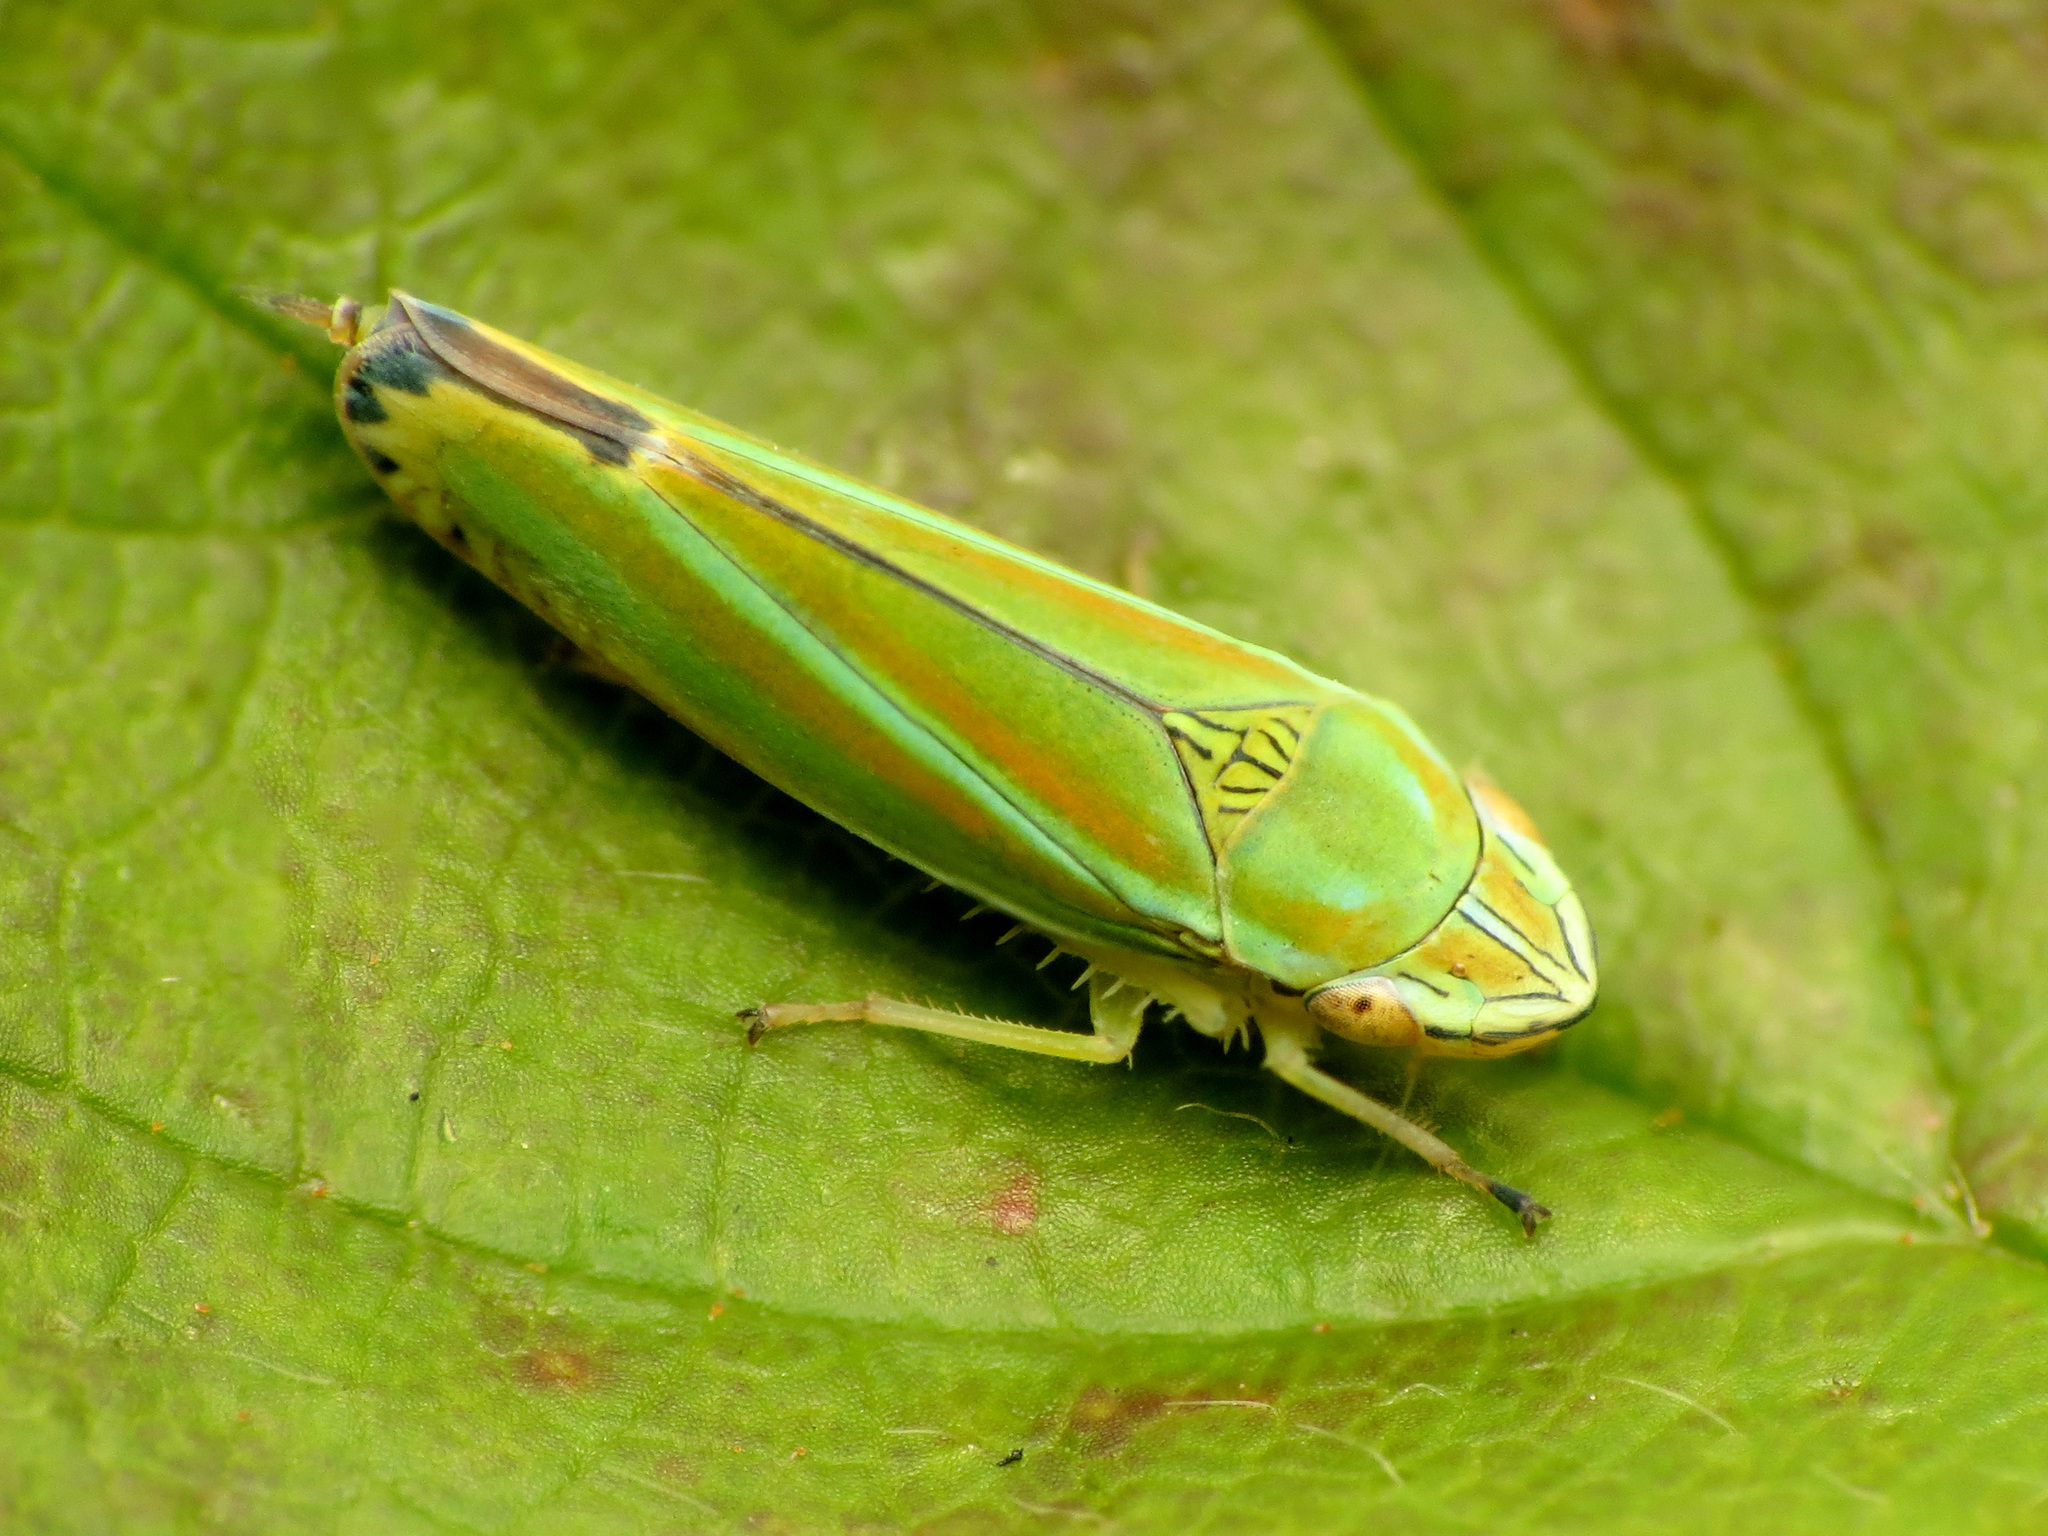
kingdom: Animalia
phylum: Arthropoda
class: Insecta
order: Hemiptera
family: Cicadellidae
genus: Graphocephala
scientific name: Graphocephala versuta
